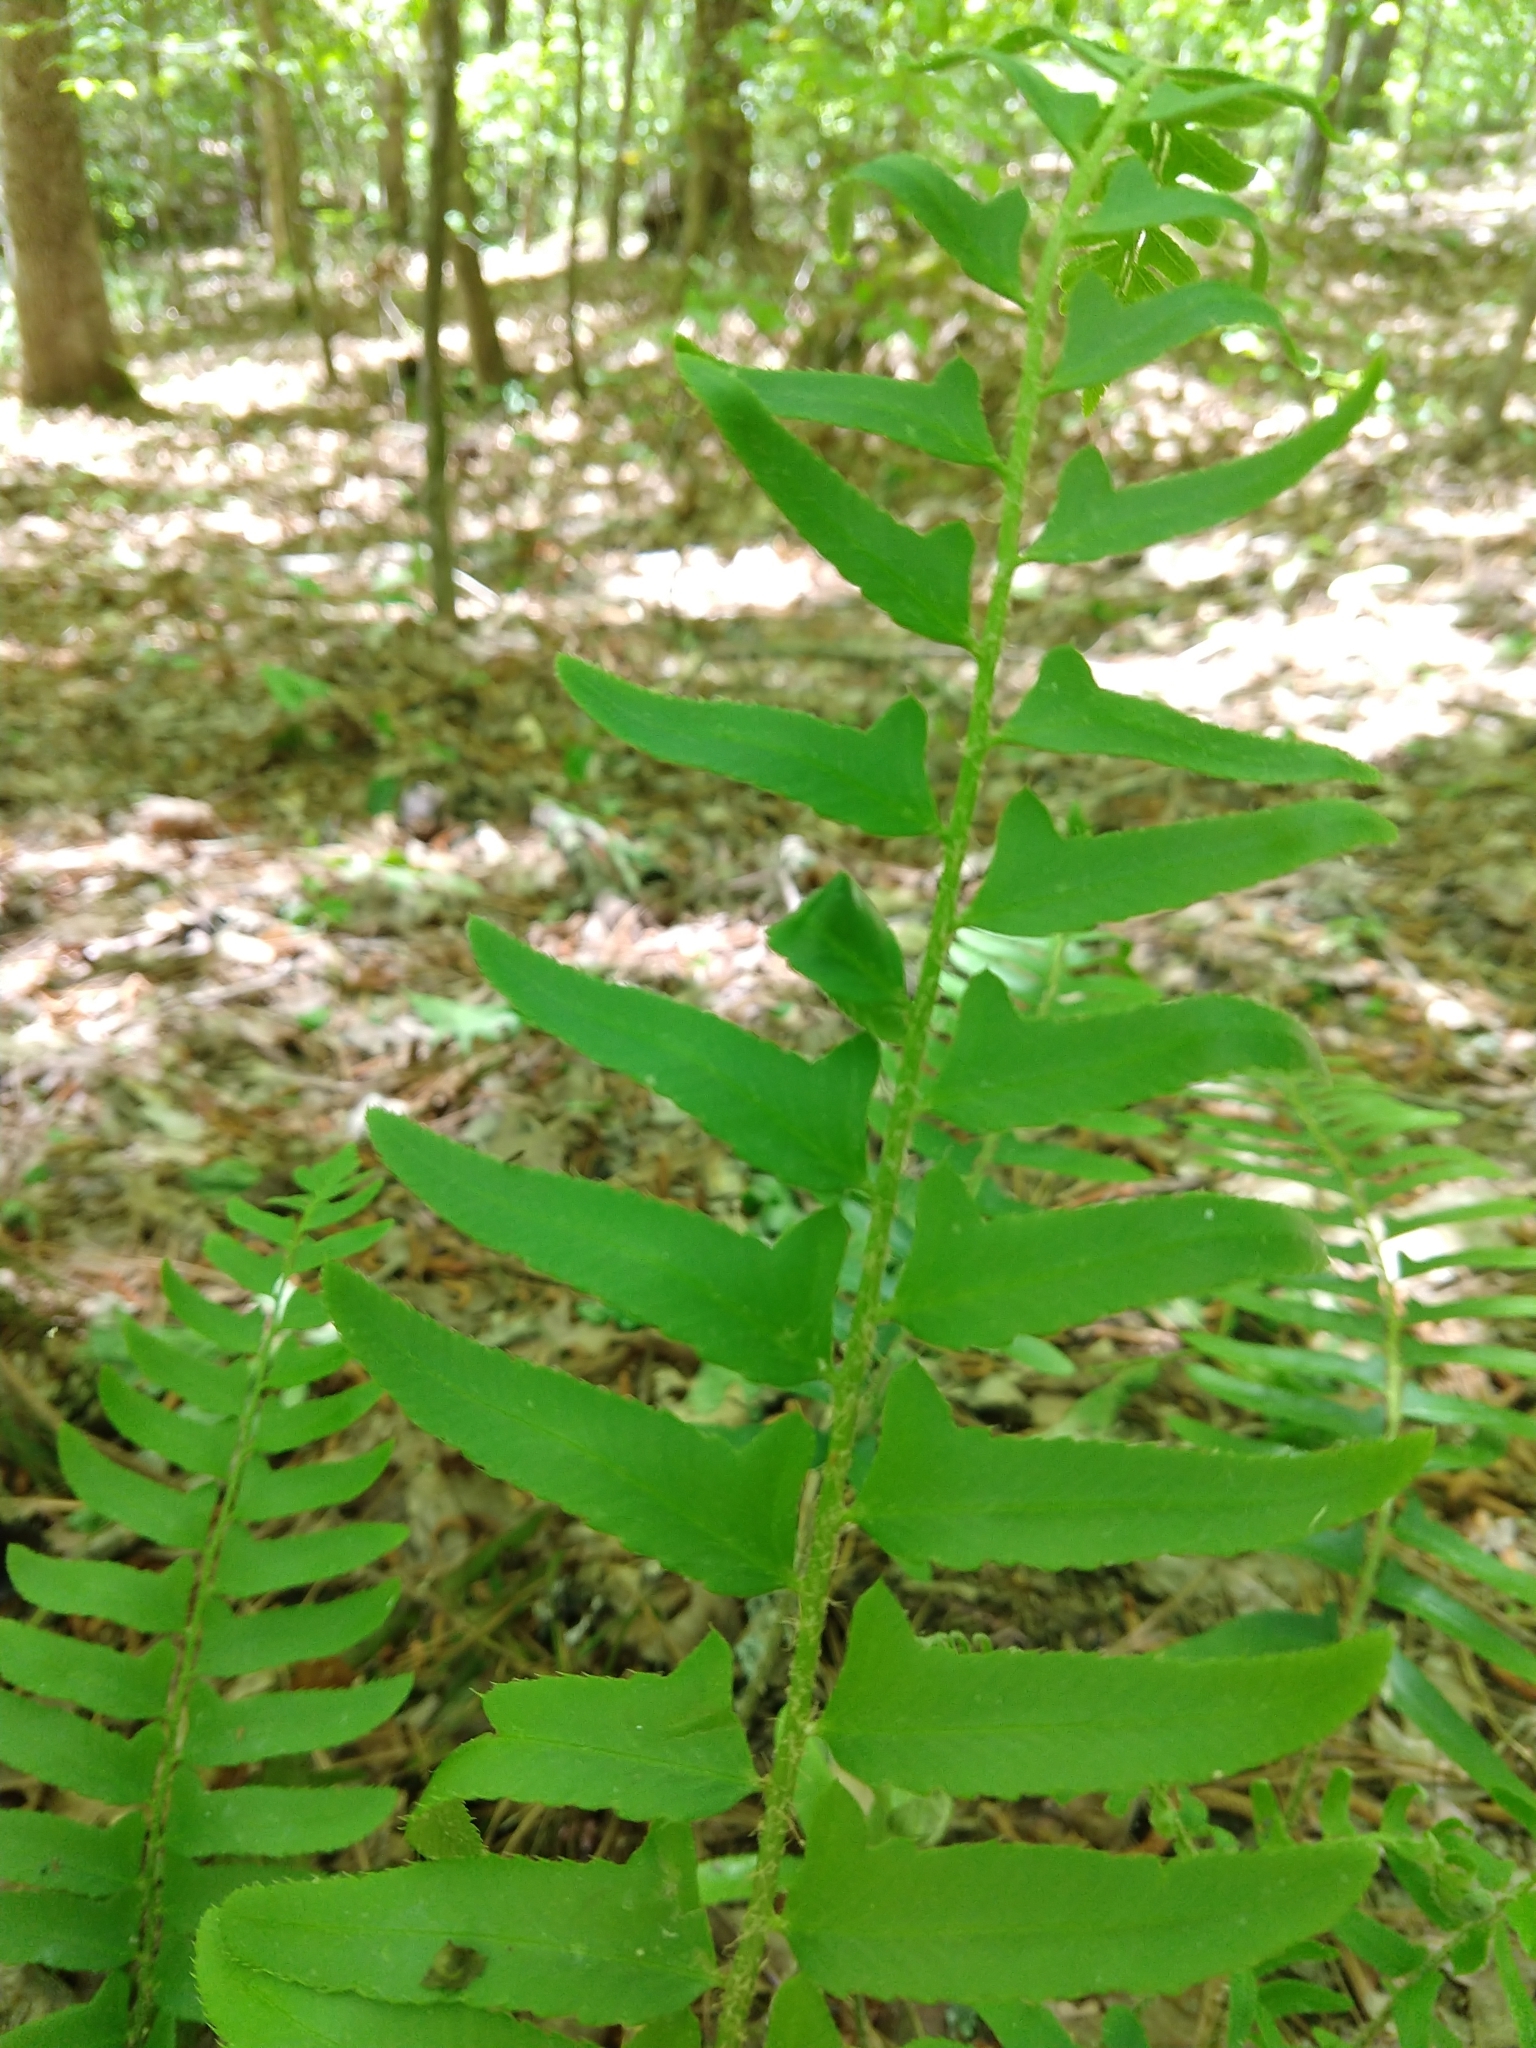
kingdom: Plantae
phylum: Tracheophyta
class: Polypodiopsida
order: Polypodiales
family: Dryopteridaceae
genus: Polystichum
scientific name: Polystichum acrostichoides
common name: Christmas fern
